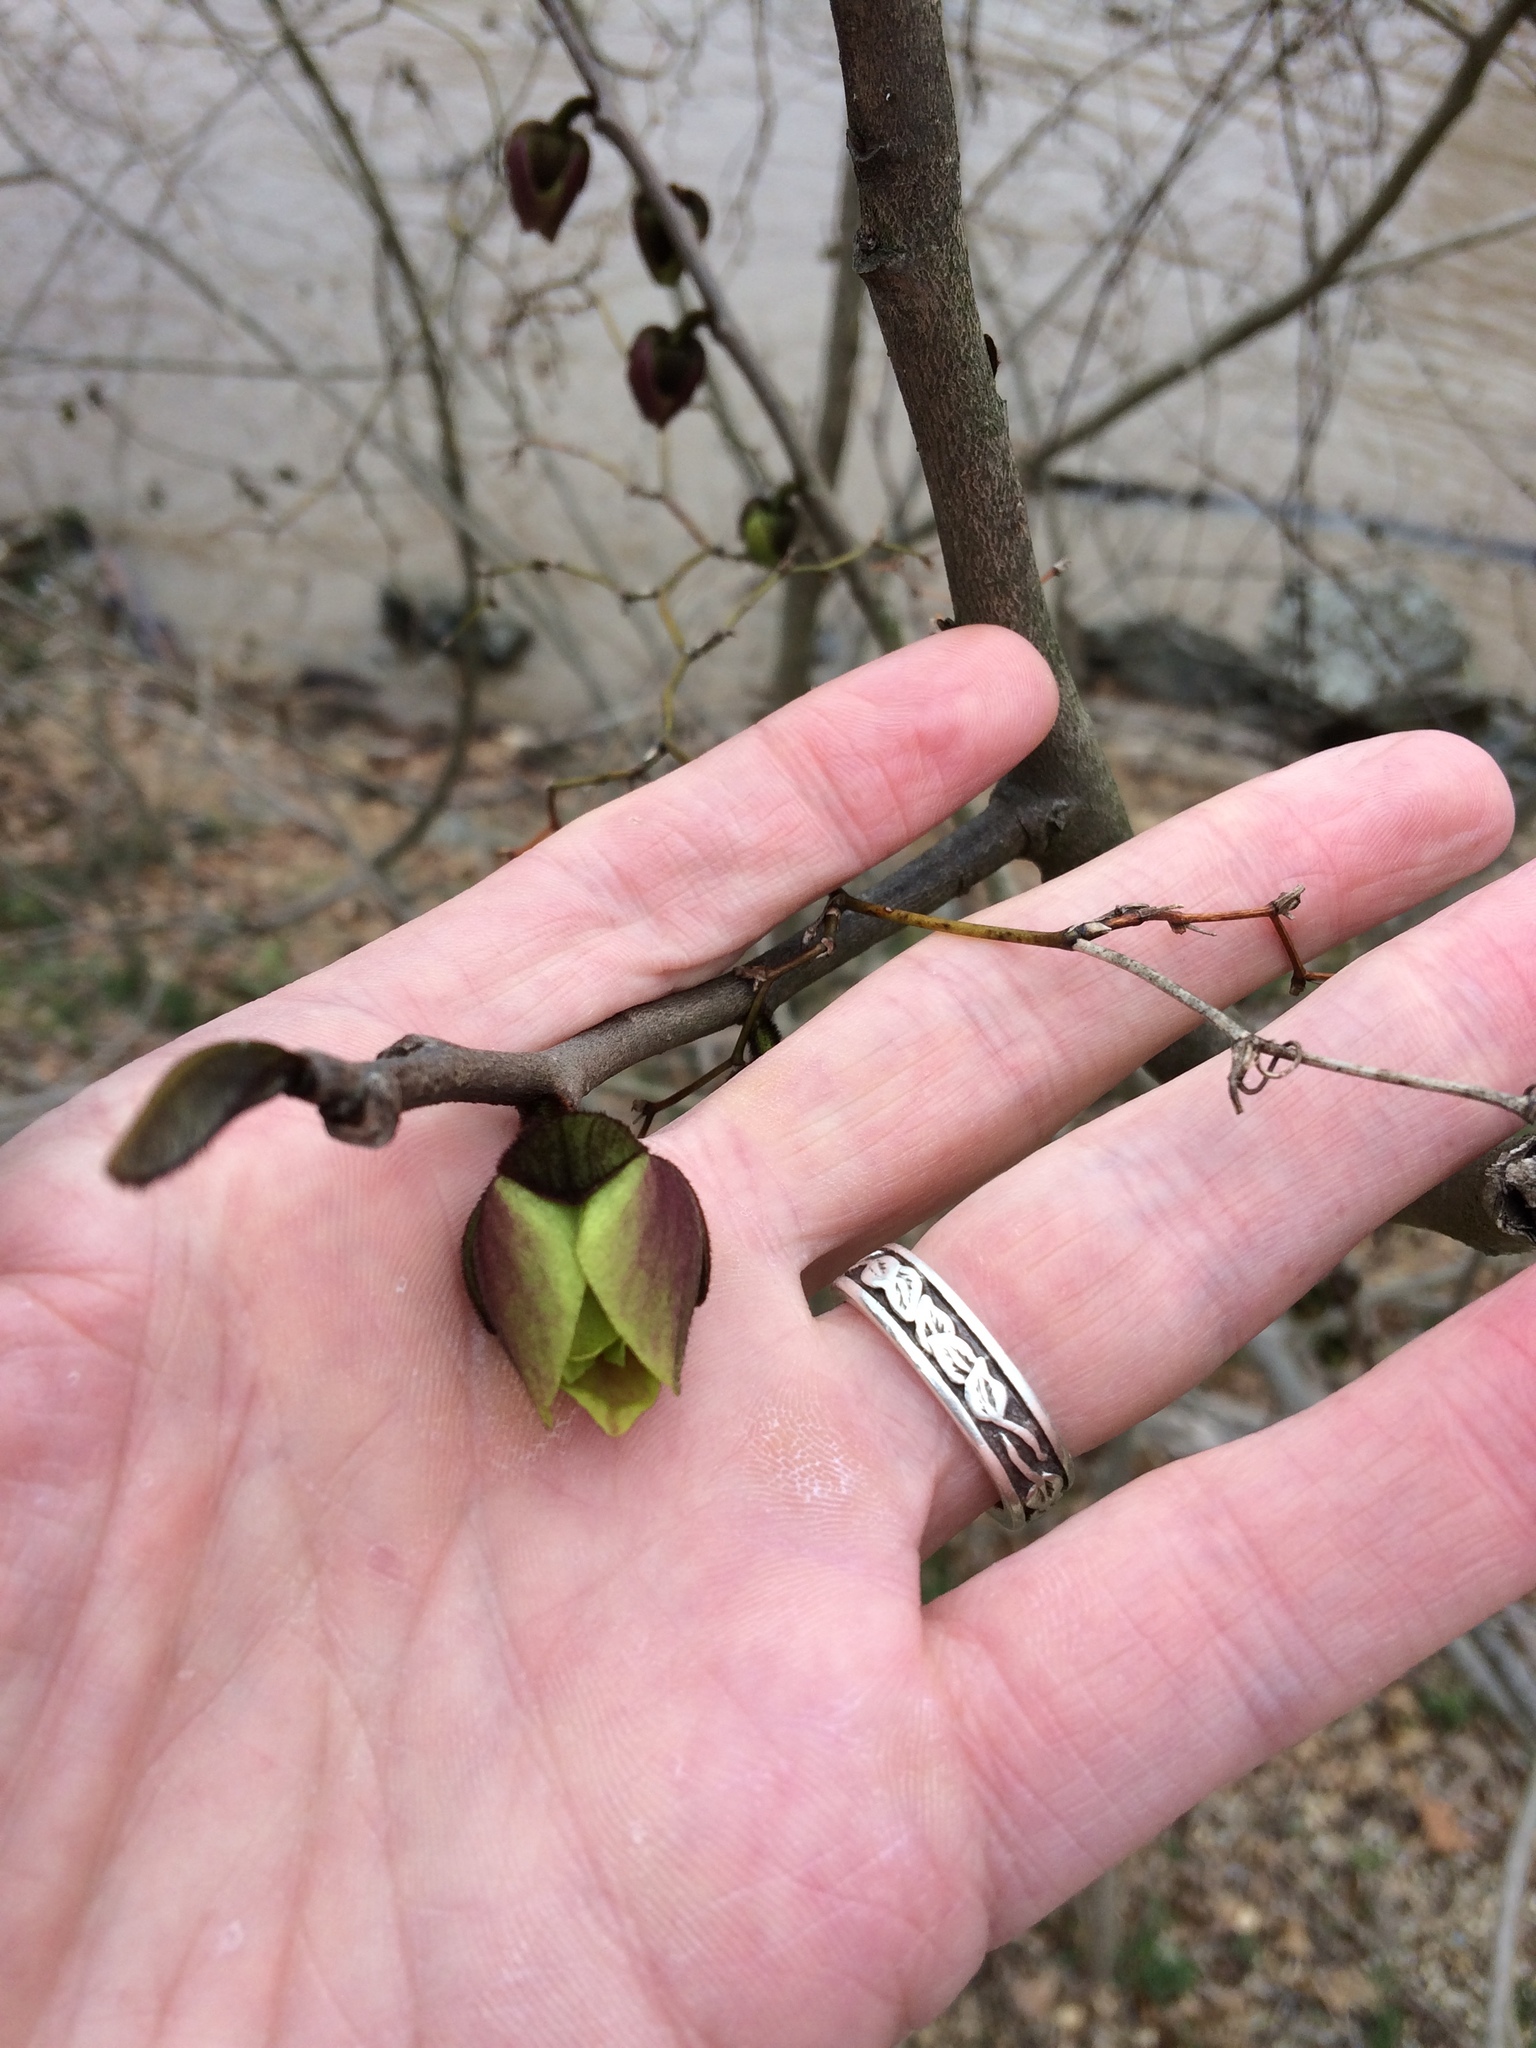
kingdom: Plantae
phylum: Tracheophyta
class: Magnoliopsida
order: Magnoliales
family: Annonaceae
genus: Asimina
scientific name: Asimina triloba
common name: Dog-banana
